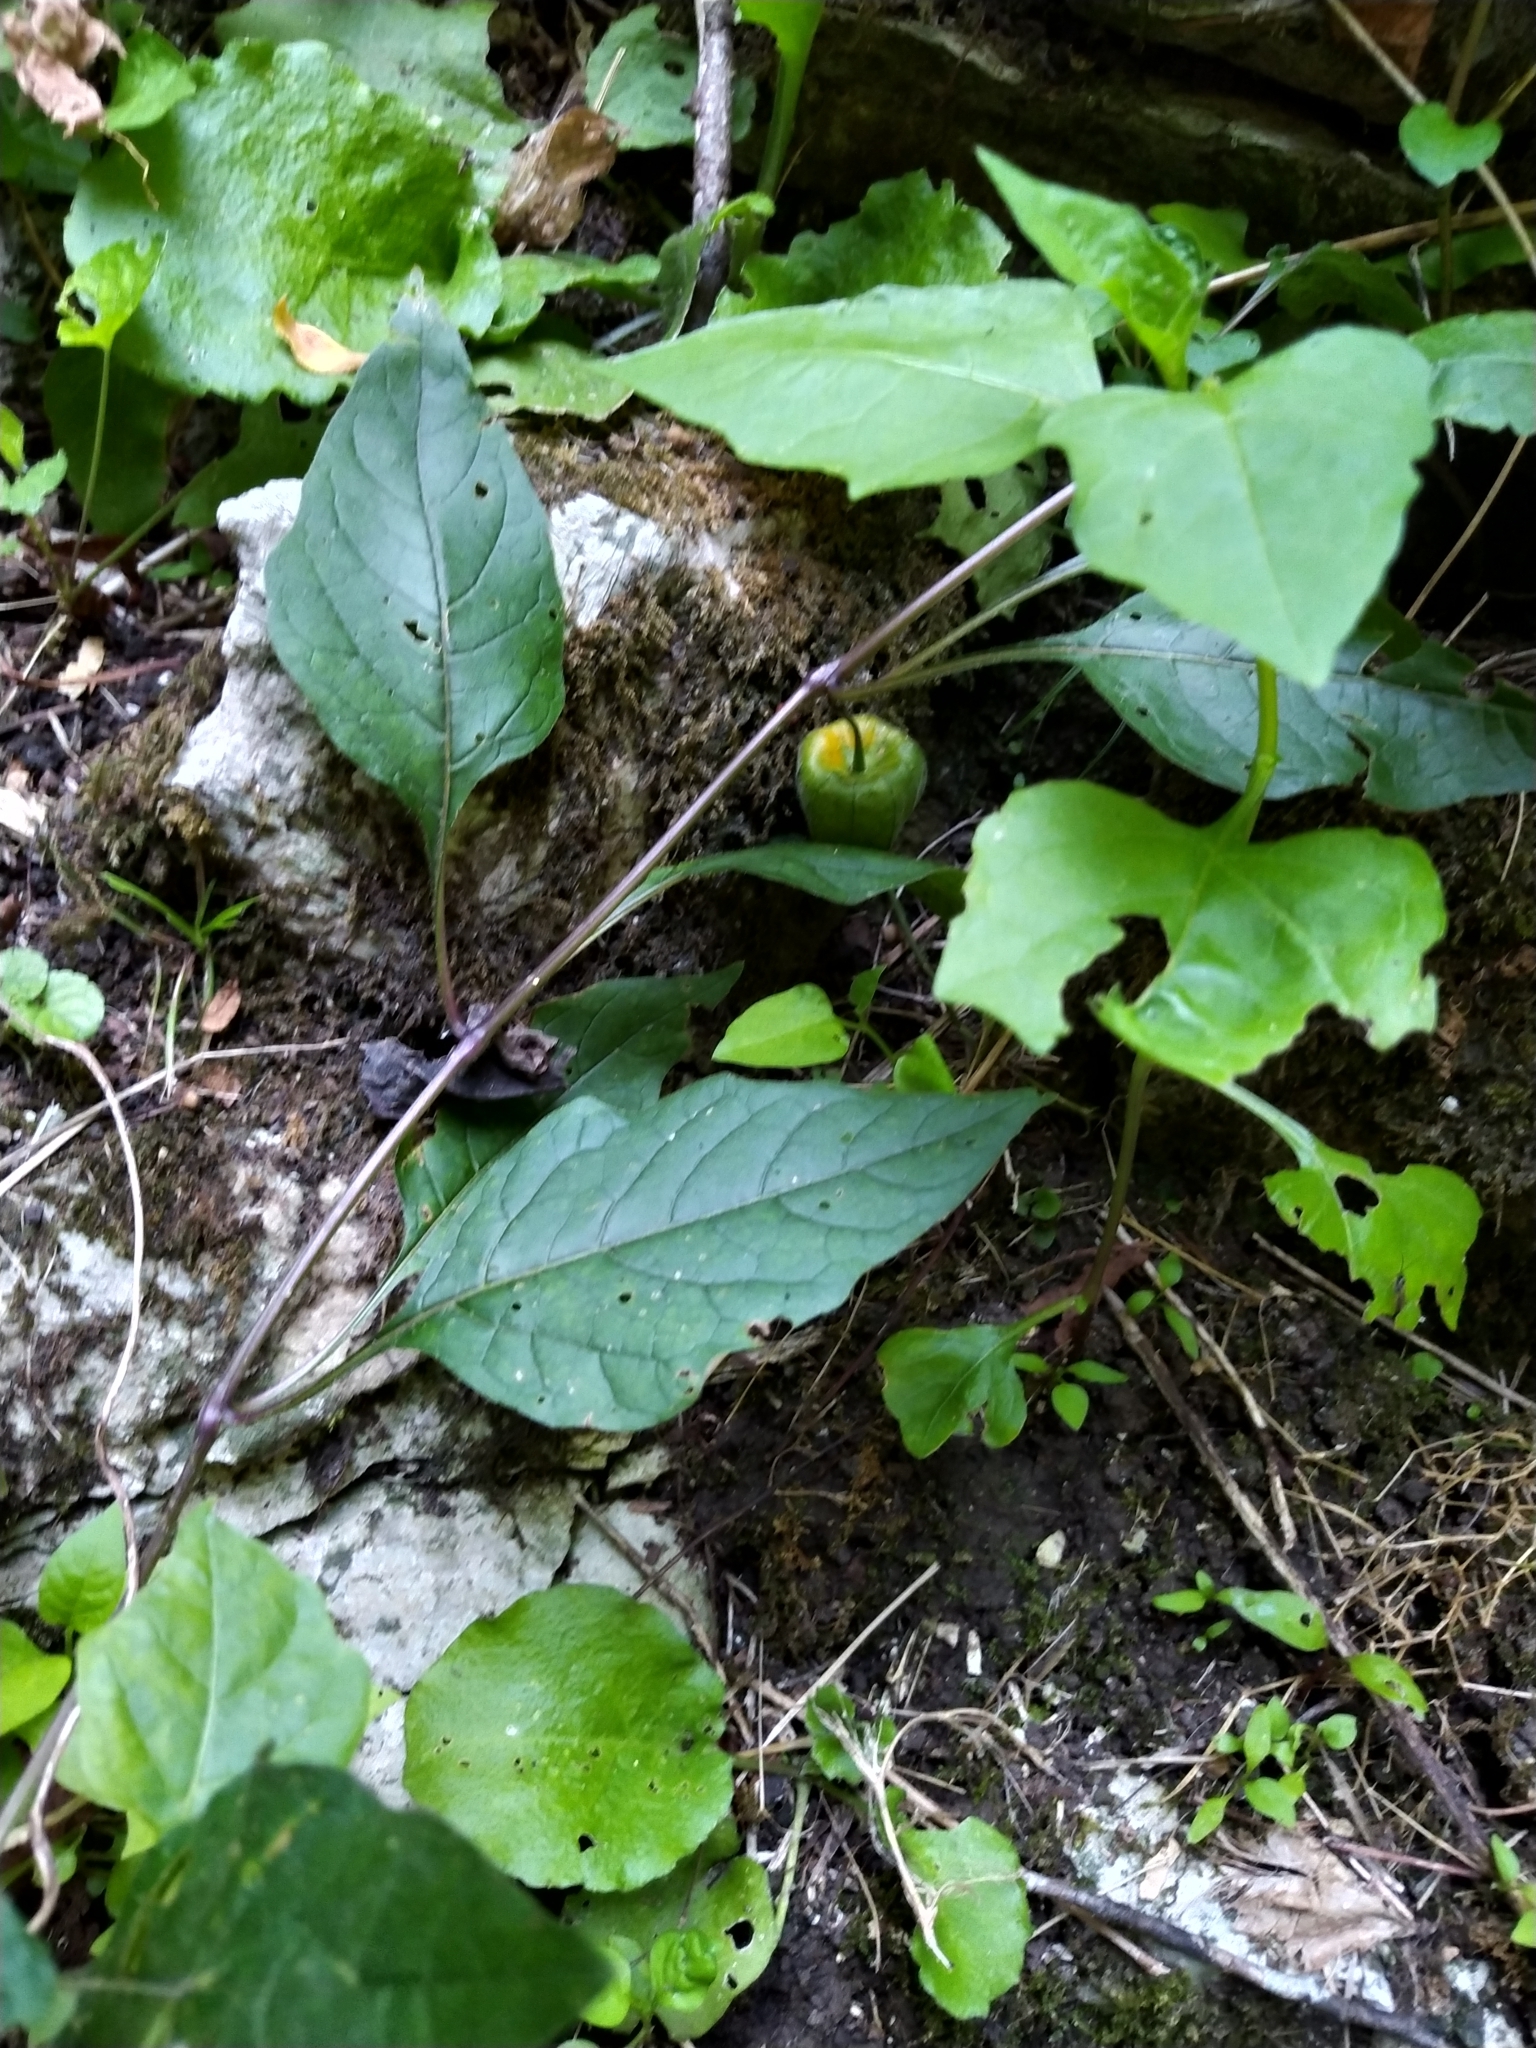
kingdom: Plantae
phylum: Tracheophyta
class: Magnoliopsida
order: Solanales
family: Solanaceae
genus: Alkekengi
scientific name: Alkekengi officinarum
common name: Japanese-lantern
